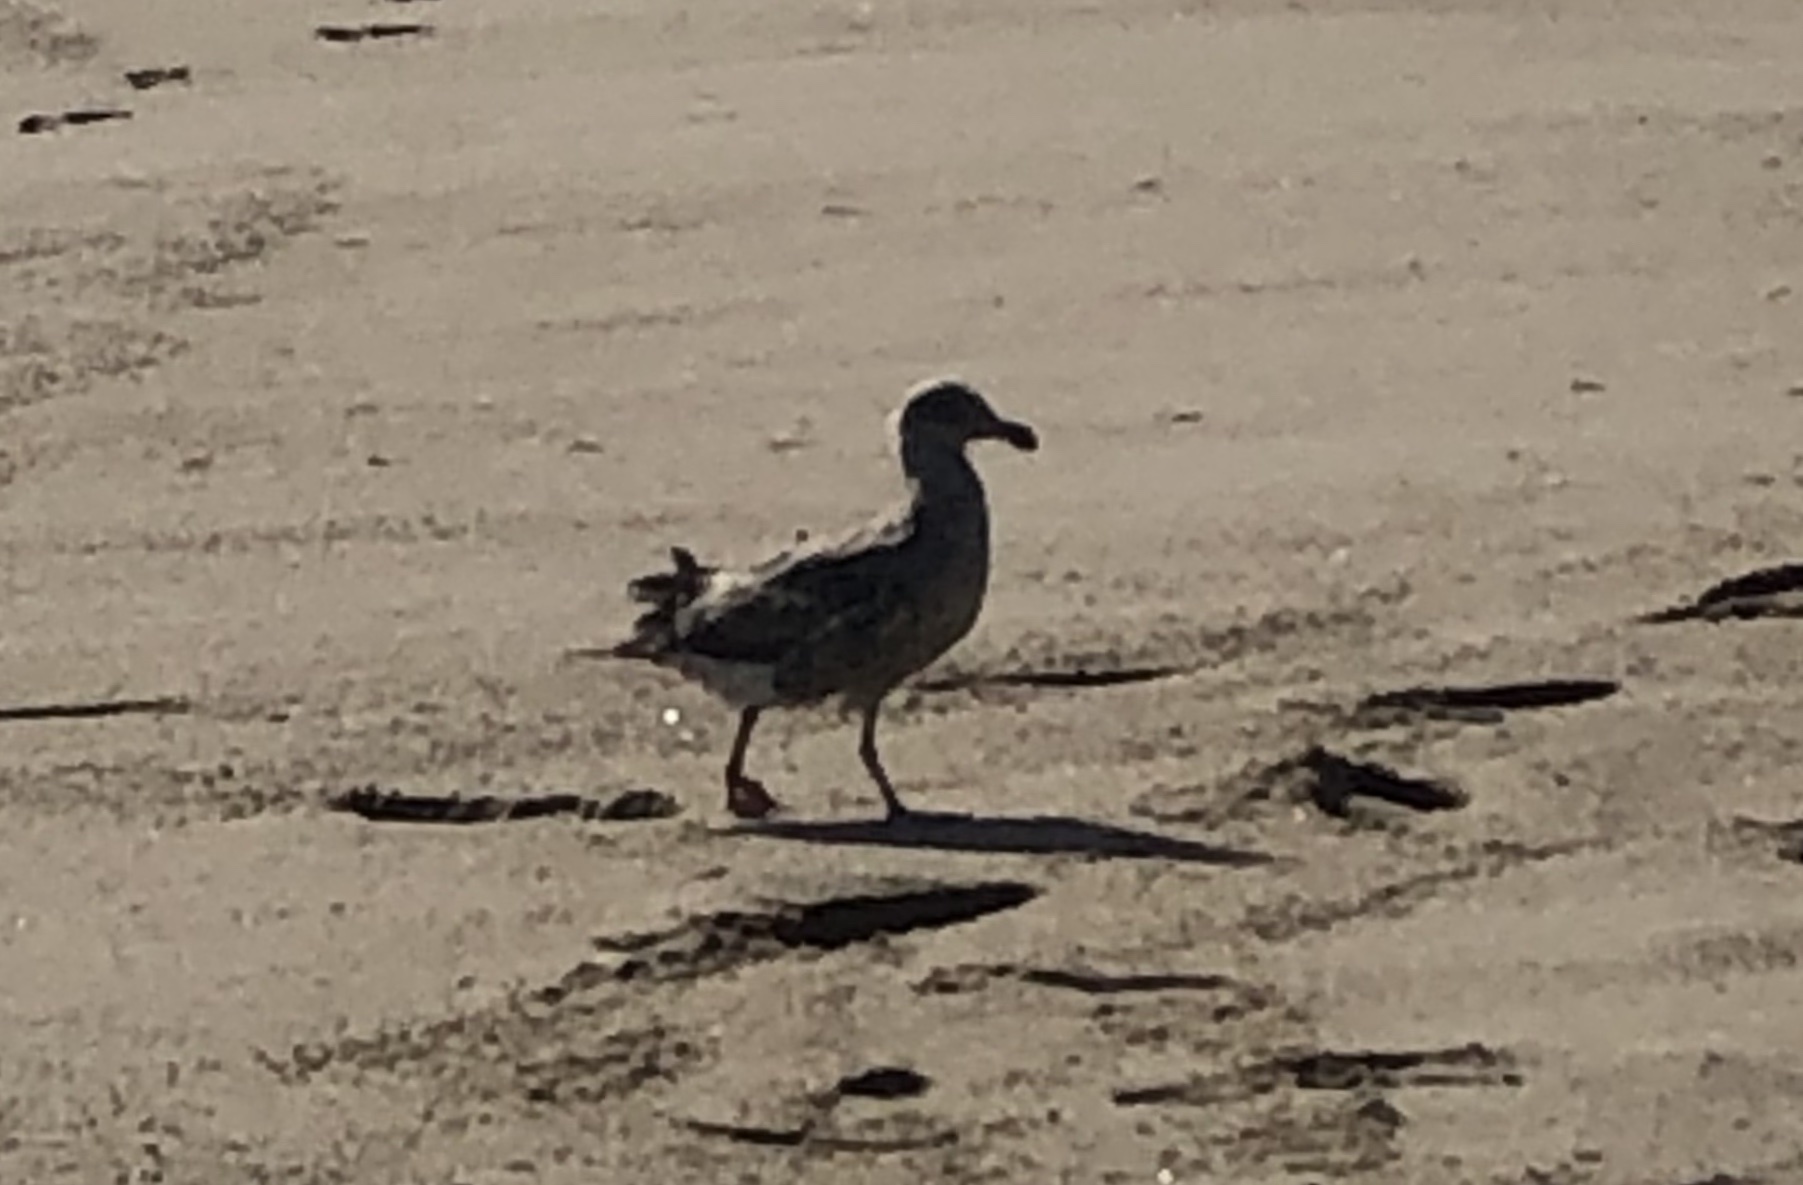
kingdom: Animalia
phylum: Chordata
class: Aves
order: Charadriiformes
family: Laridae
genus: Larus
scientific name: Larus occidentalis
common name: Western gull
